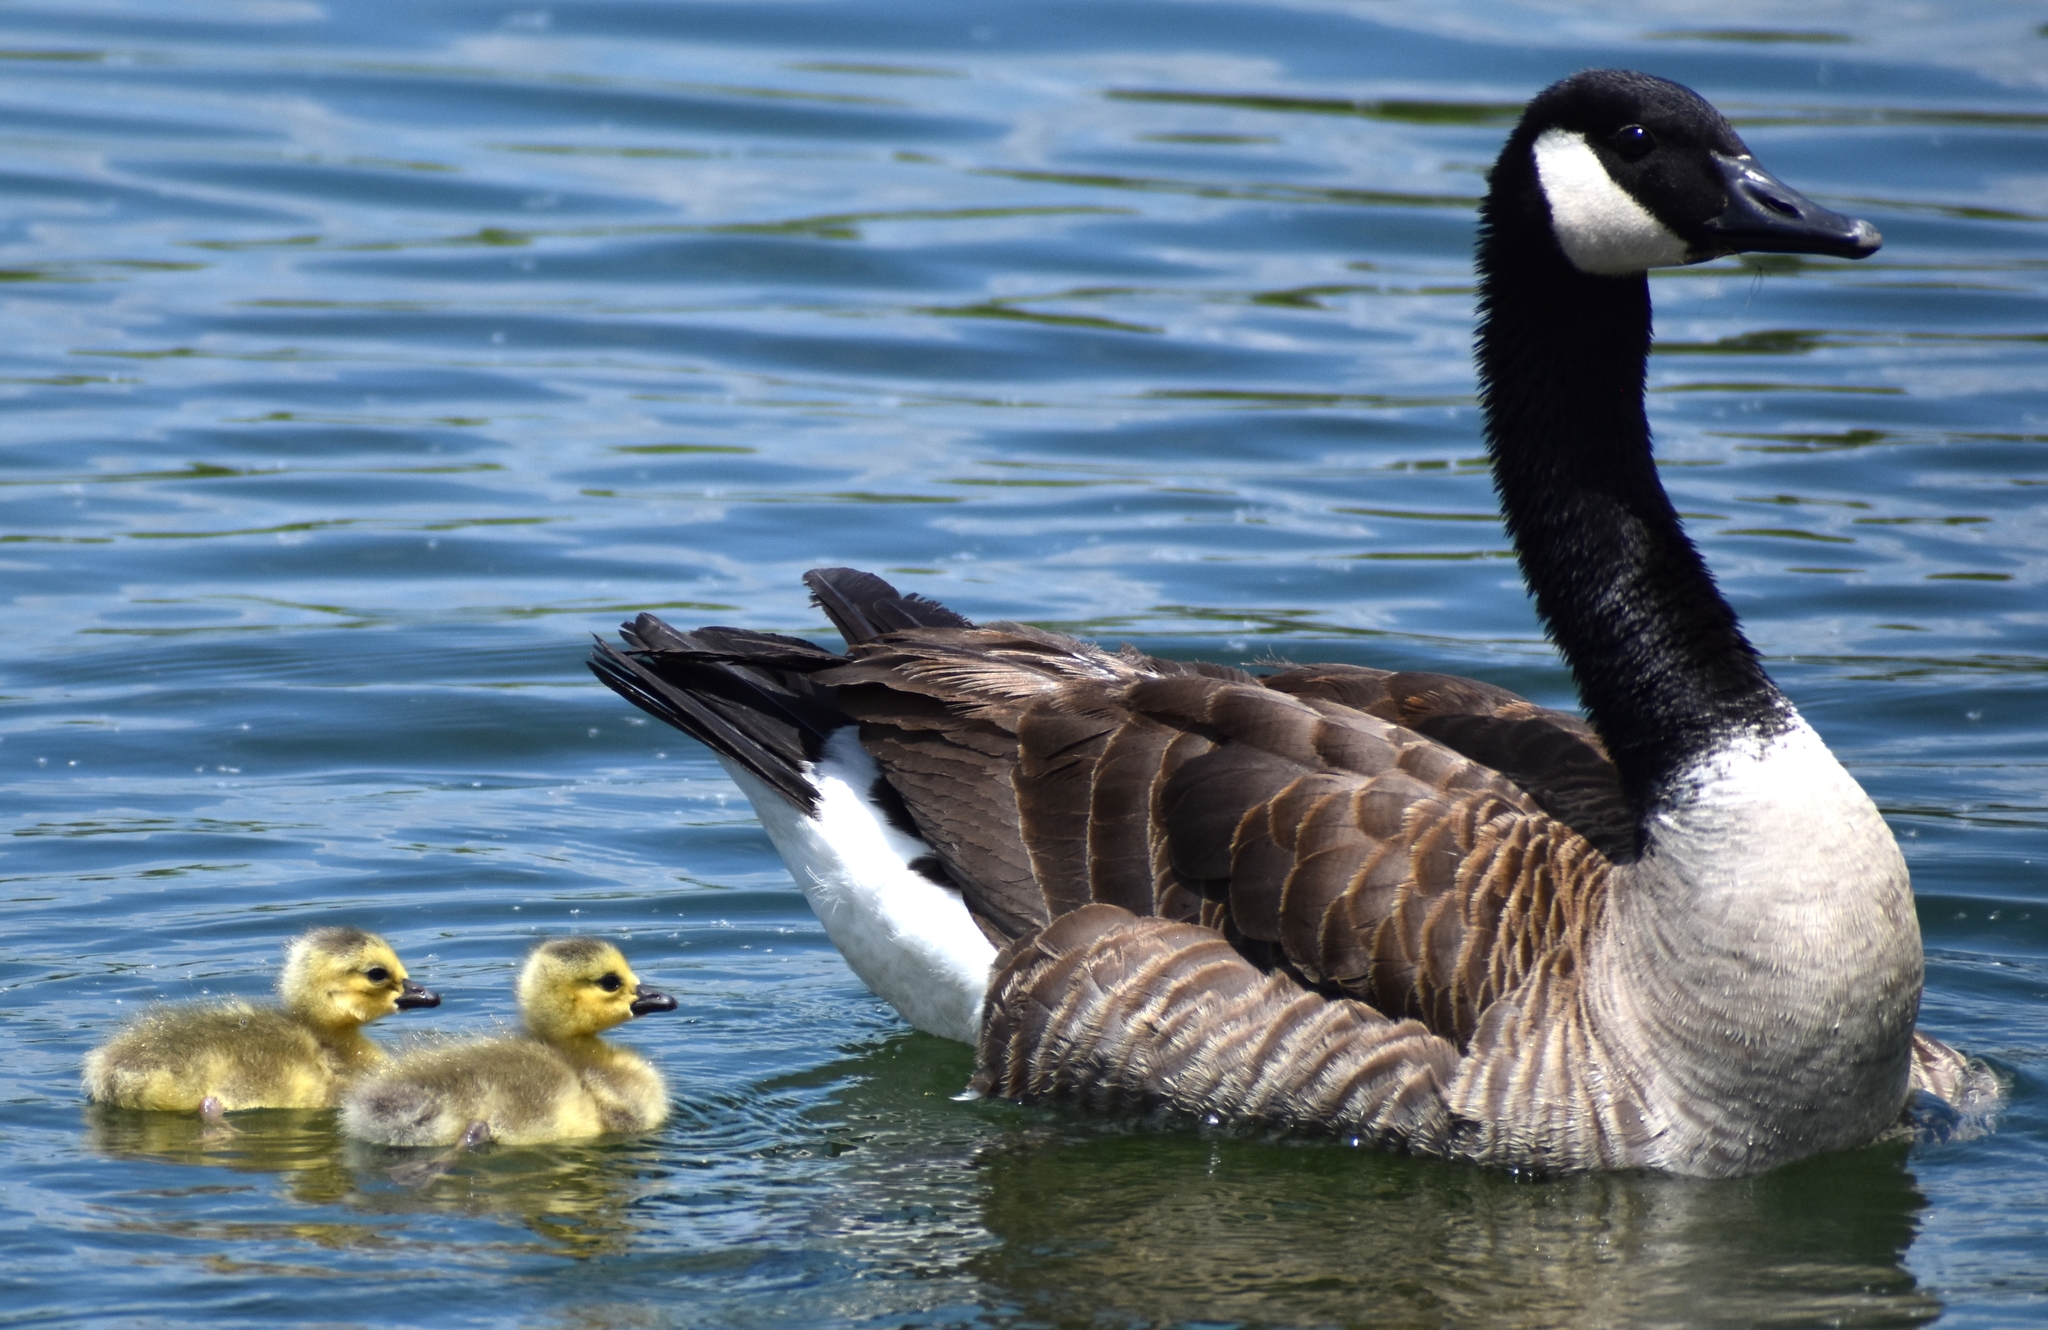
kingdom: Animalia
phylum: Chordata
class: Aves
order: Anseriformes
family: Anatidae
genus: Branta
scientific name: Branta canadensis
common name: Canada goose
